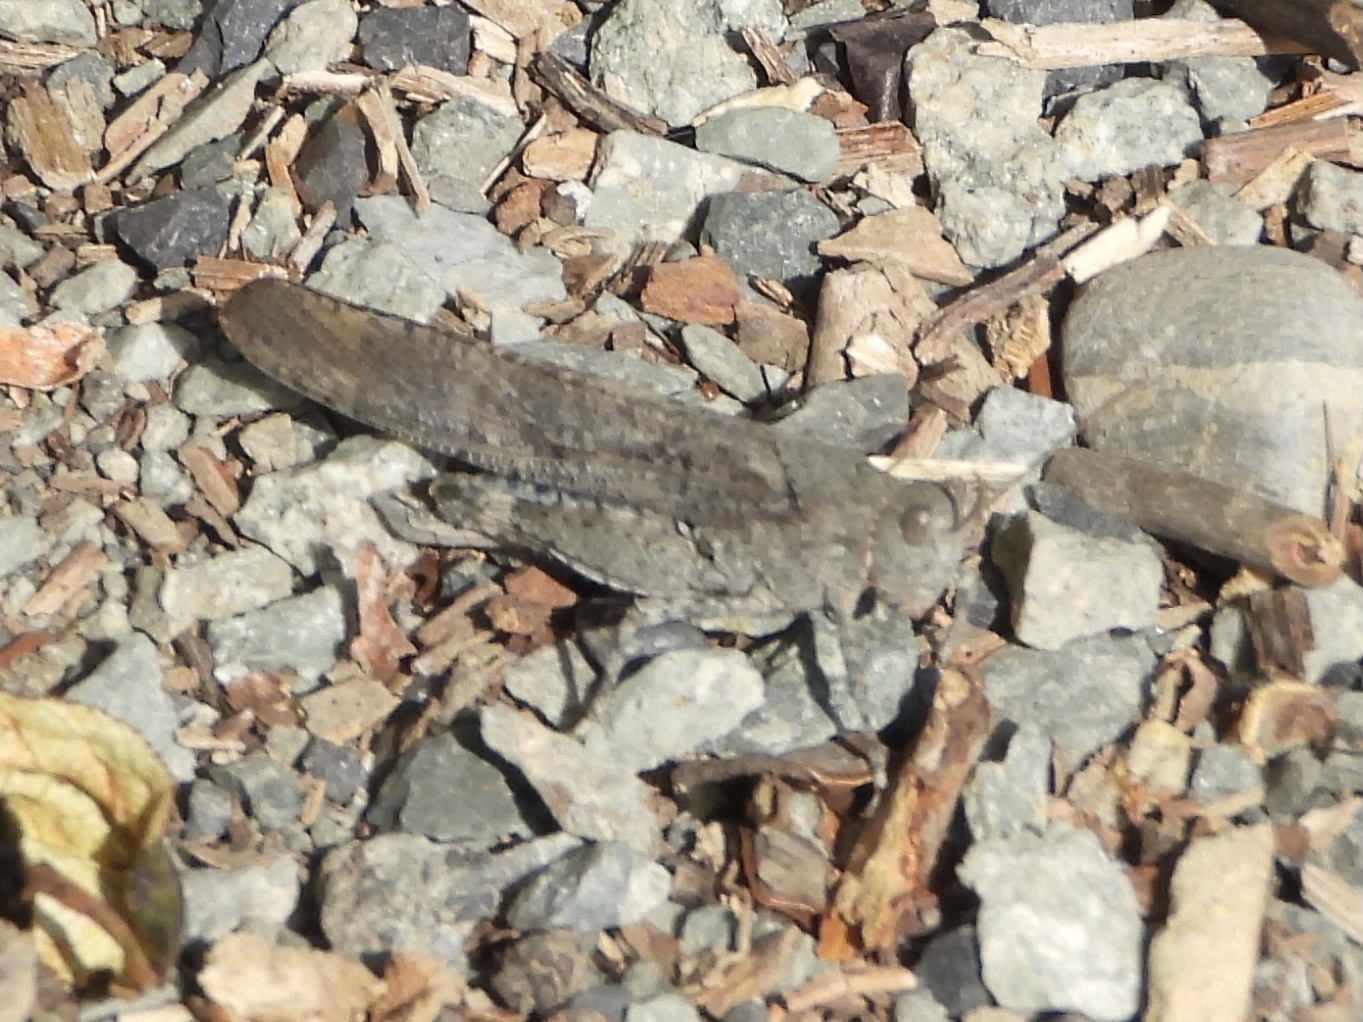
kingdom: Animalia
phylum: Arthropoda
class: Insecta
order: Orthoptera
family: Acrididae
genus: Dissosteira
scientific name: Dissosteira carolina
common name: Carolina grasshopper
